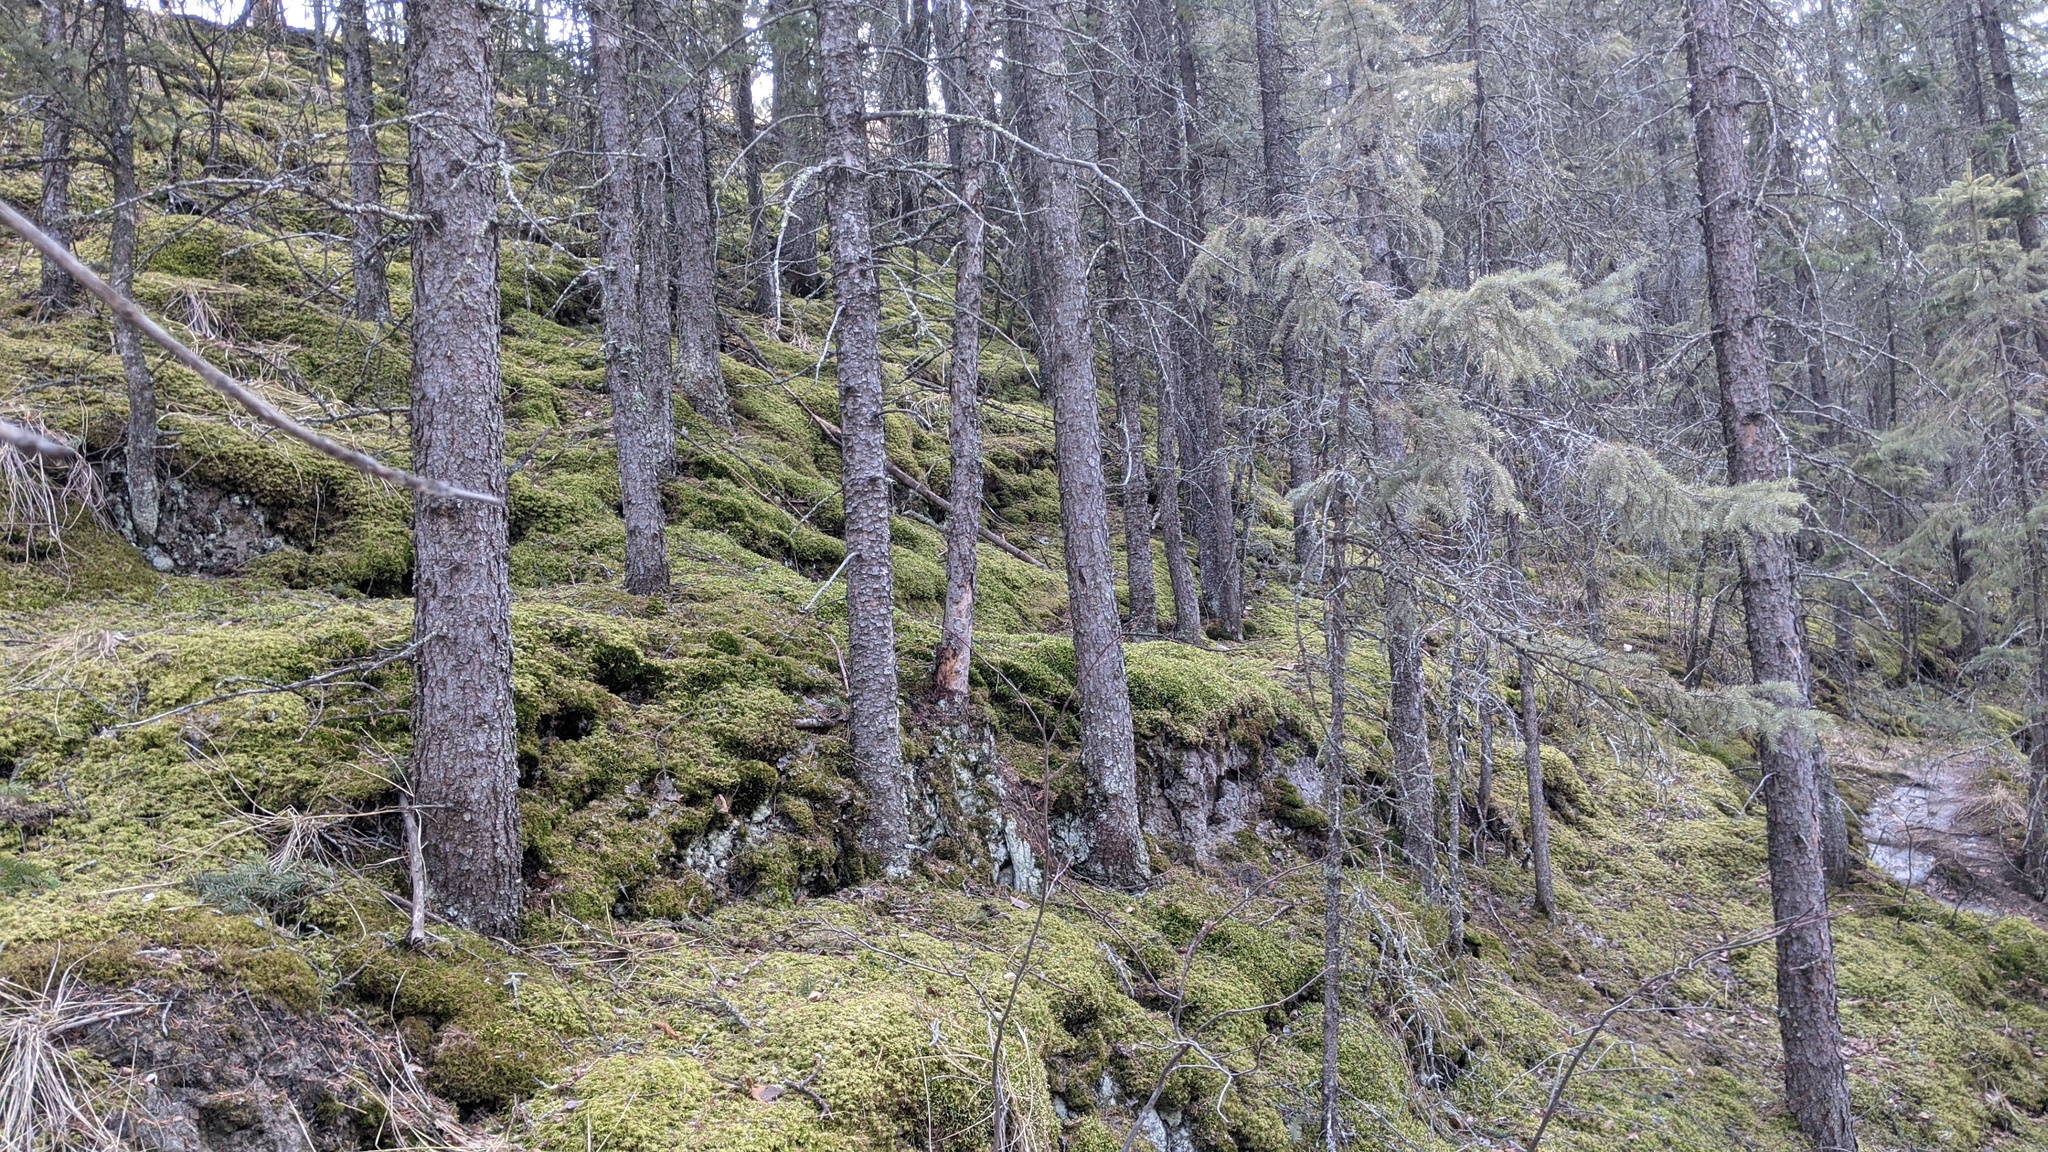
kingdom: Plantae
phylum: Bryophyta
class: Bryopsida
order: Hypnales
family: Hylocomiaceae
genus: Hylocomium
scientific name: Hylocomium splendens
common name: Stairstep moss
